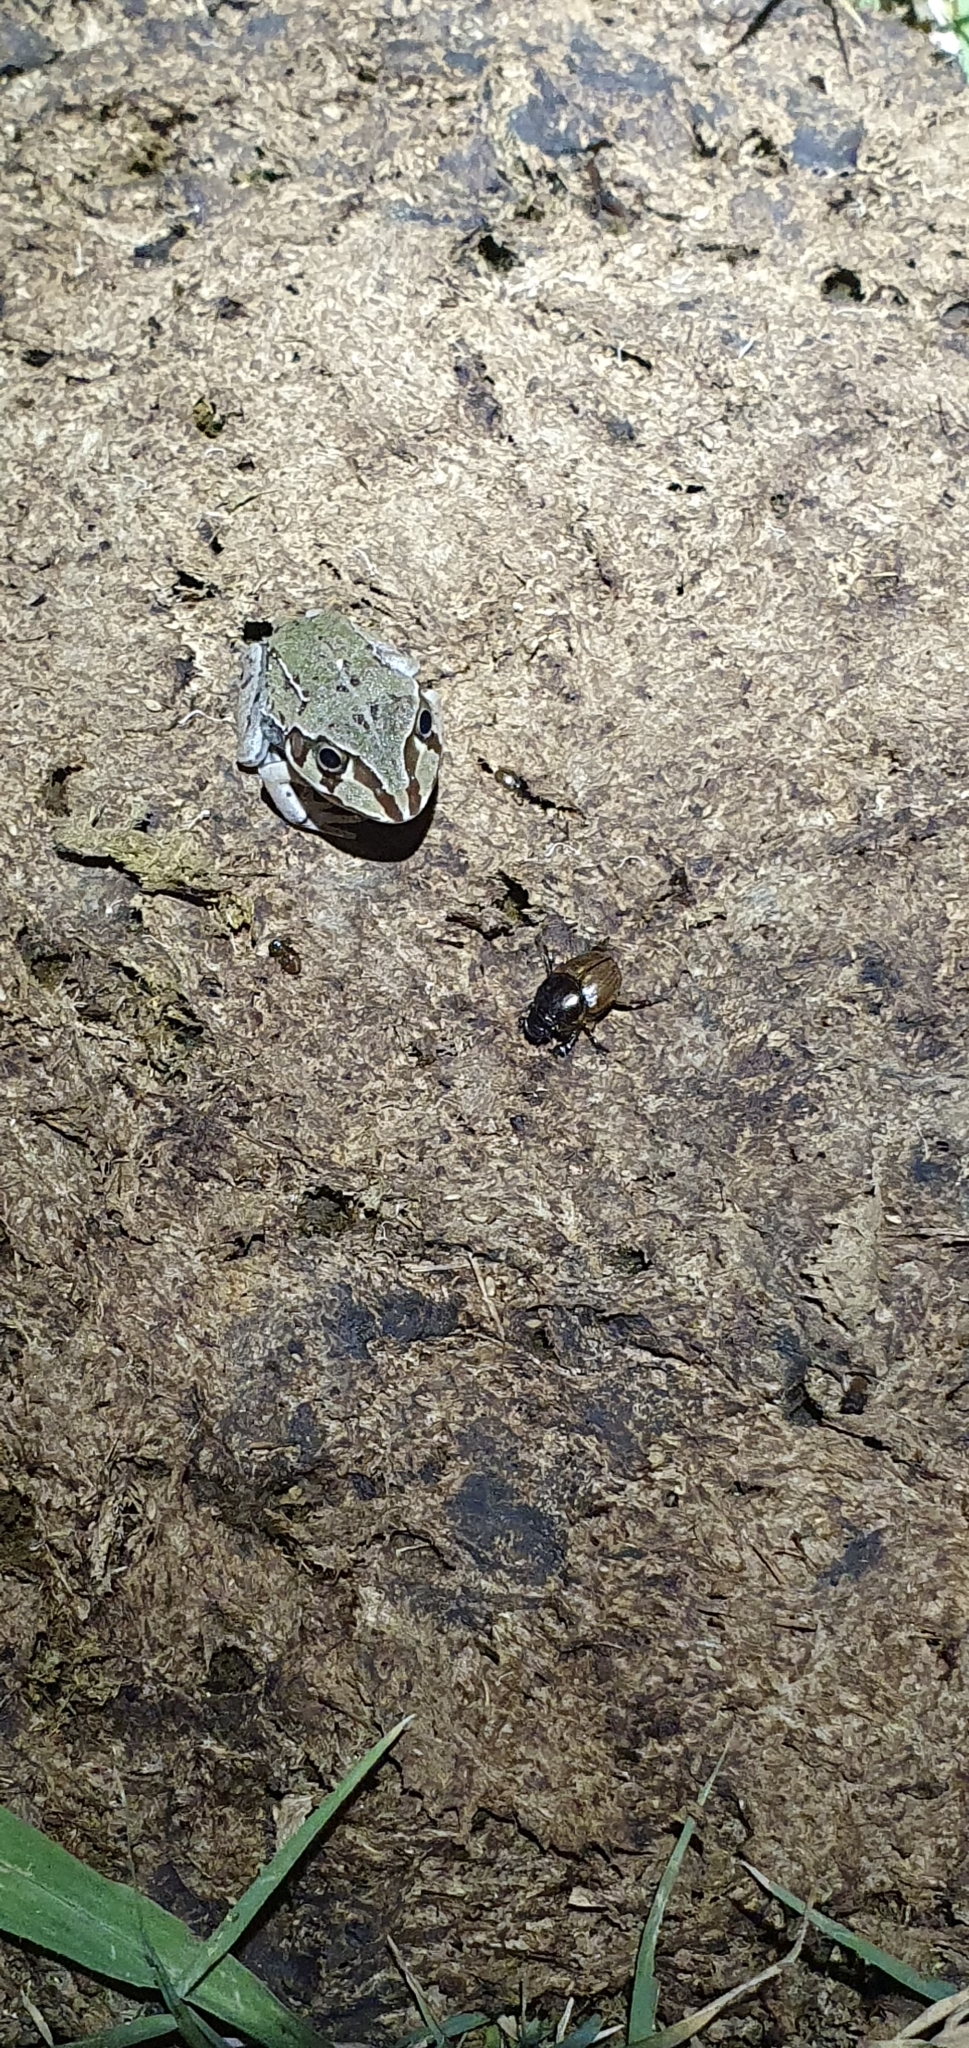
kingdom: Animalia
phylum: Chordata
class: Amphibia
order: Anura
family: Pelodryadidae
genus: Ranoidea
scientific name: Ranoidea novaehollandiae
